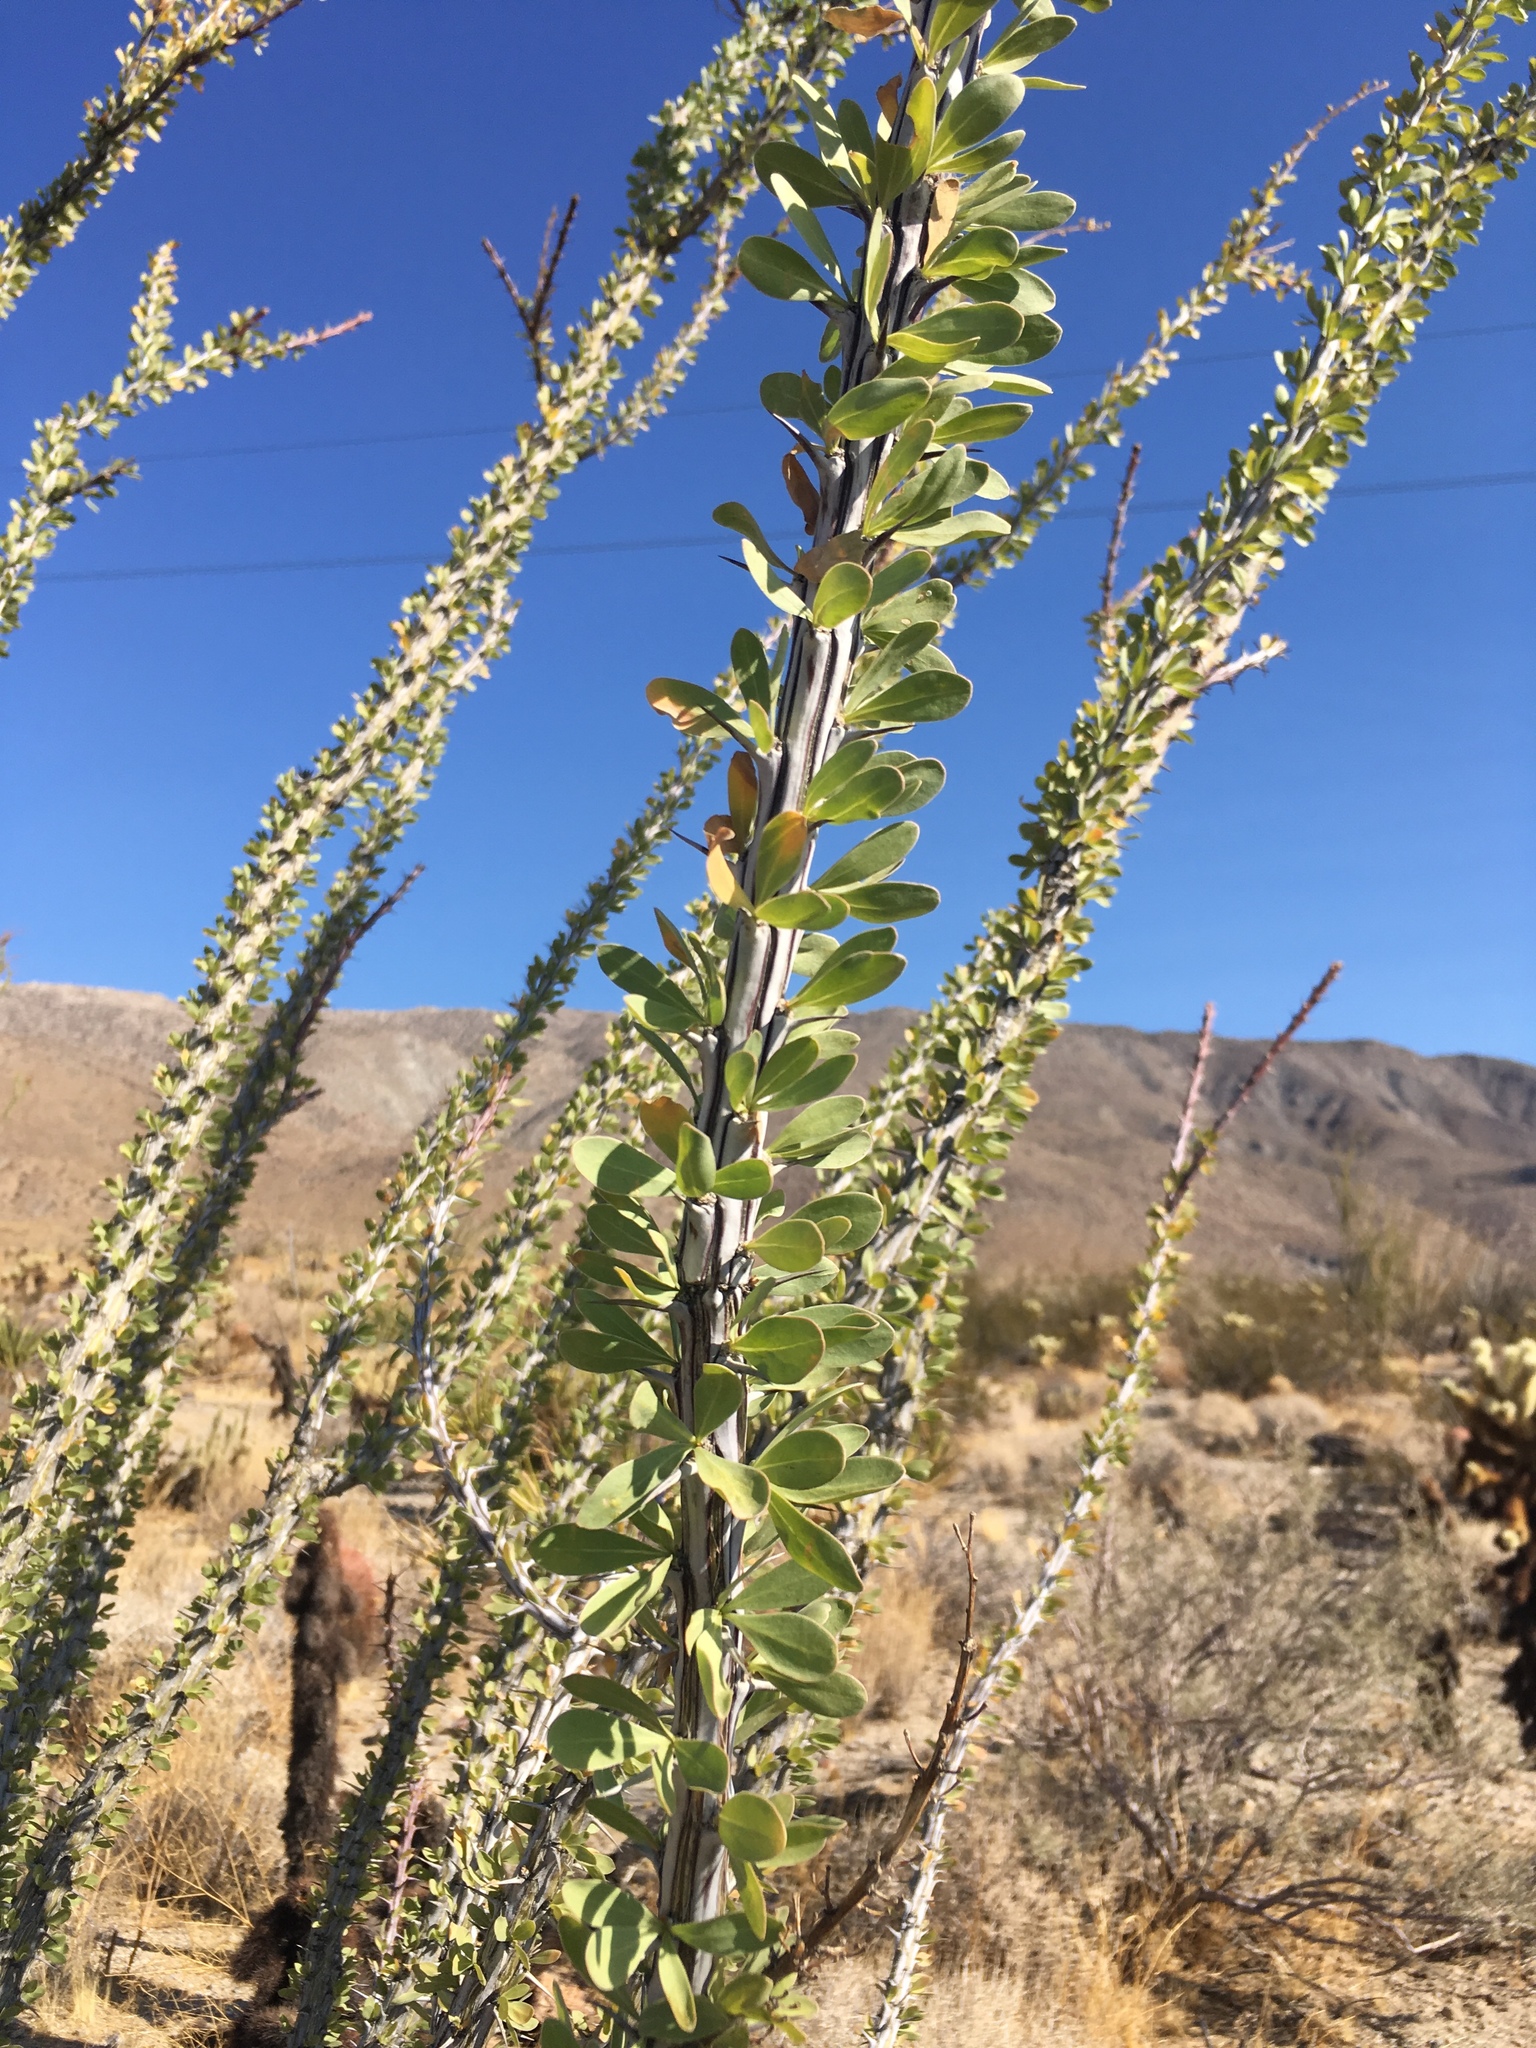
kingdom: Plantae
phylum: Tracheophyta
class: Magnoliopsida
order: Ericales
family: Fouquieriaceae
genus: Fouquieria
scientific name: Fouquieria splendens
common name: Vine-cactus
